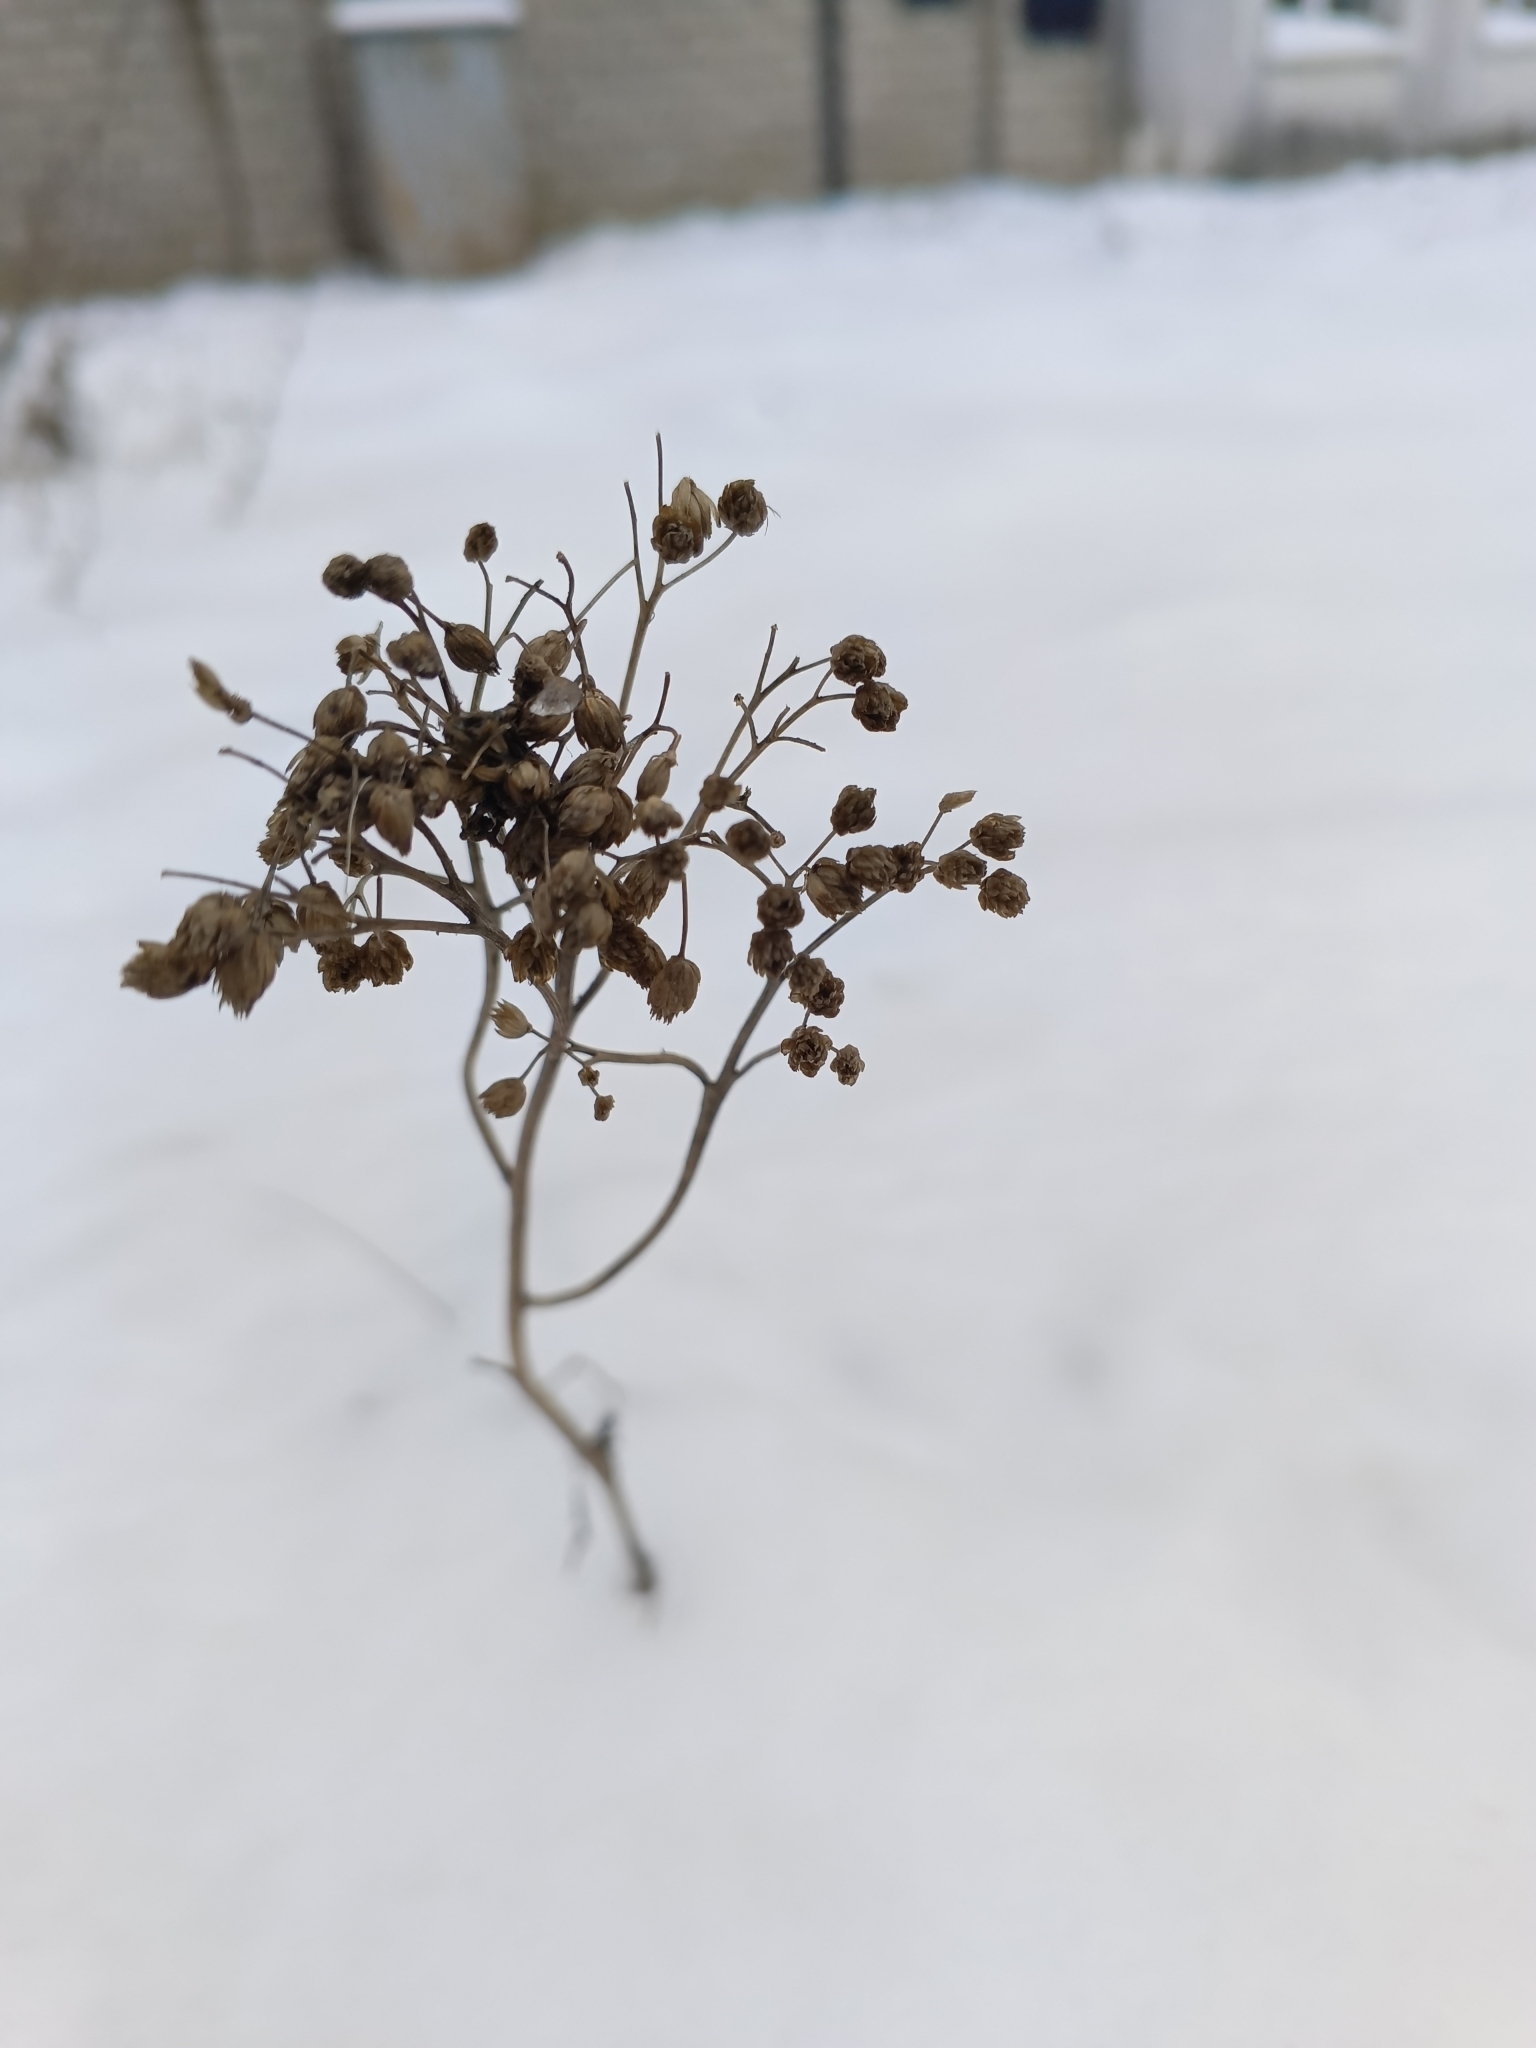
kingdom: Plantae
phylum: Tracheophyta
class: Magnoliopsida
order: Asterales
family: Asteraceae
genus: Achillea
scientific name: Achillea millefolium
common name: Yarrow
